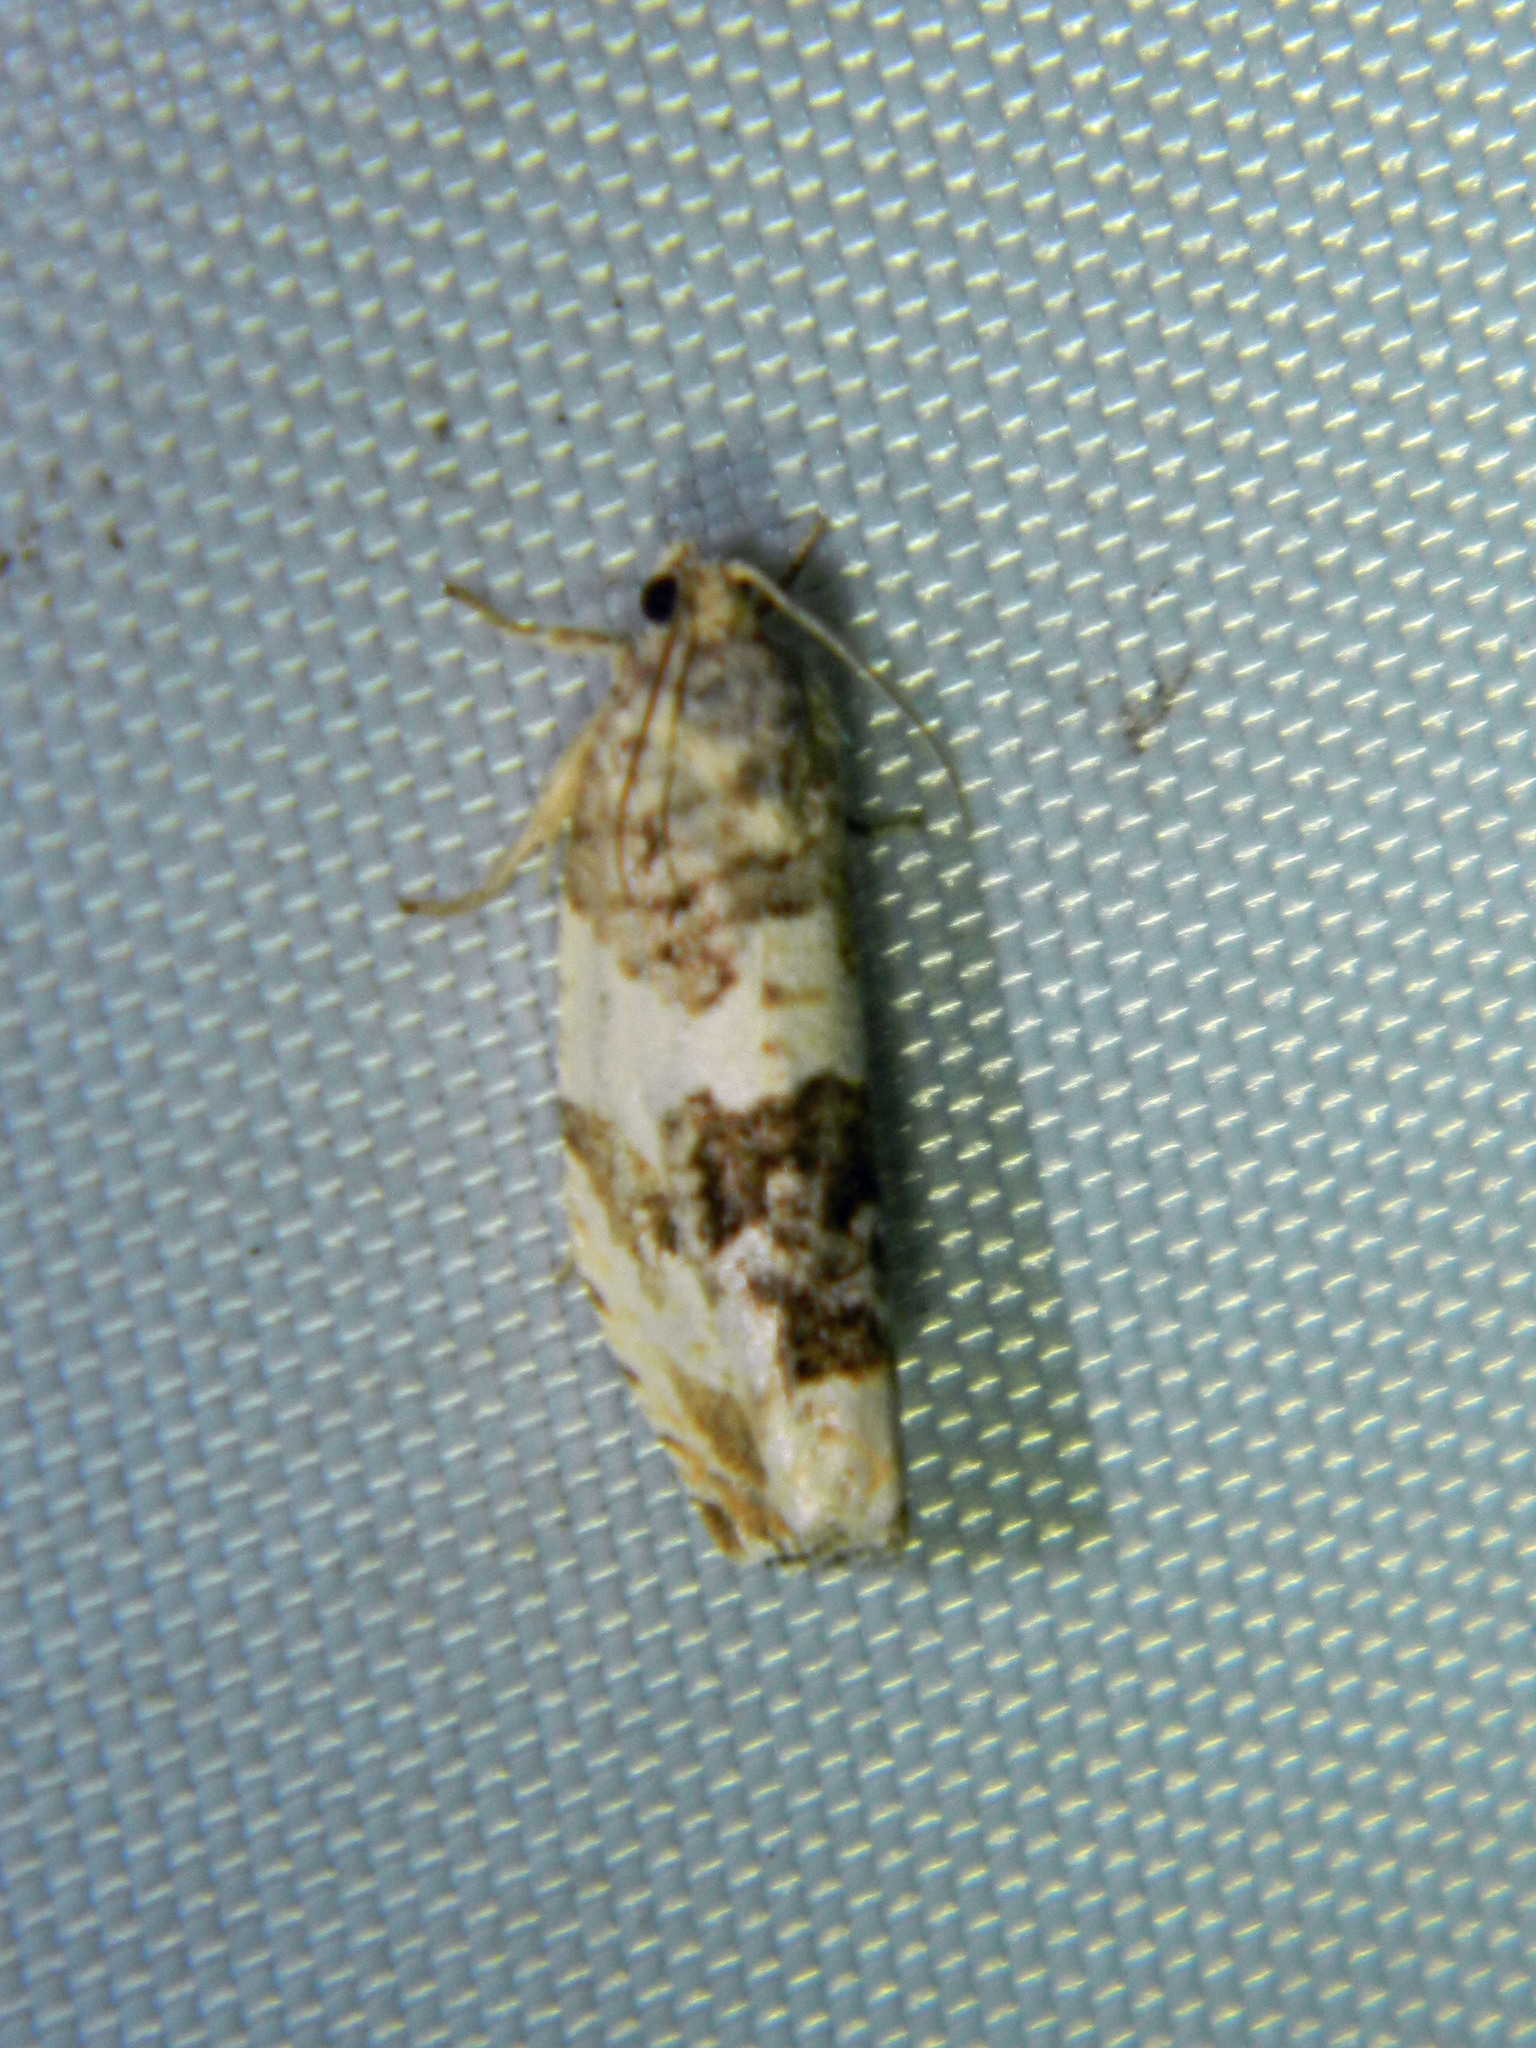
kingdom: Animalia
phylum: Arthropoda
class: Insecta
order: Lepidoptera
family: Tortricidae
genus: Pseudosciaphila
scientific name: Pseudosciaphila duplex
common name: Poplar leafroller moth
